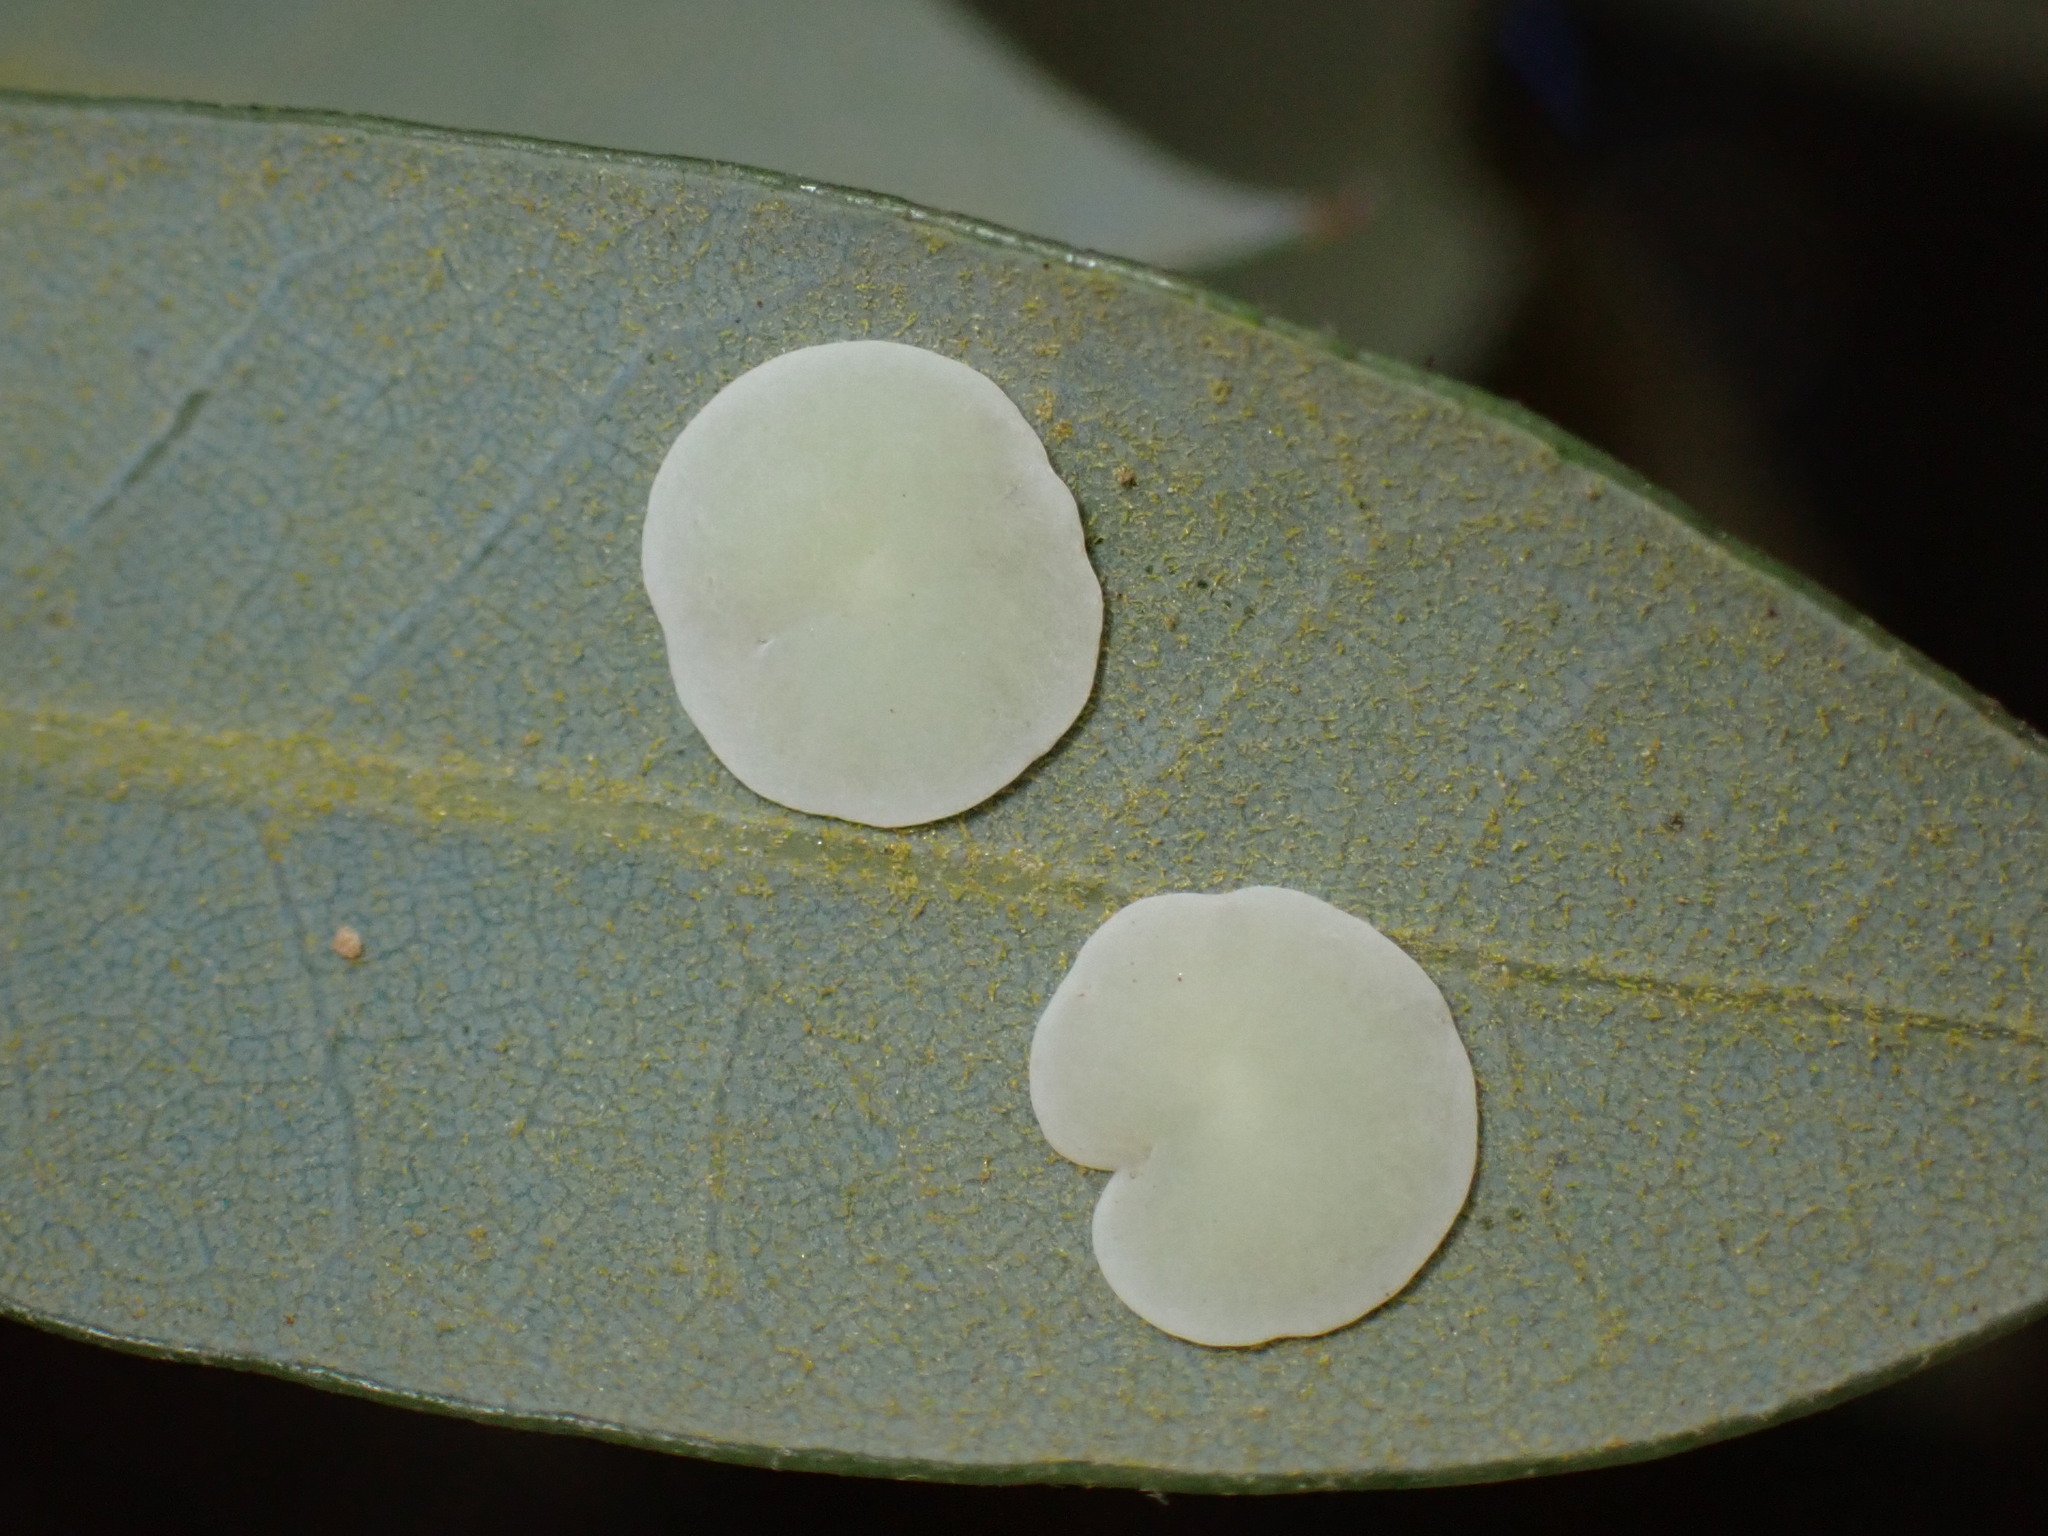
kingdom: Animalia
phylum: Arthropoda
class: Insecta
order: Hymenoptera
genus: Paracraspis
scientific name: Paracraspis
